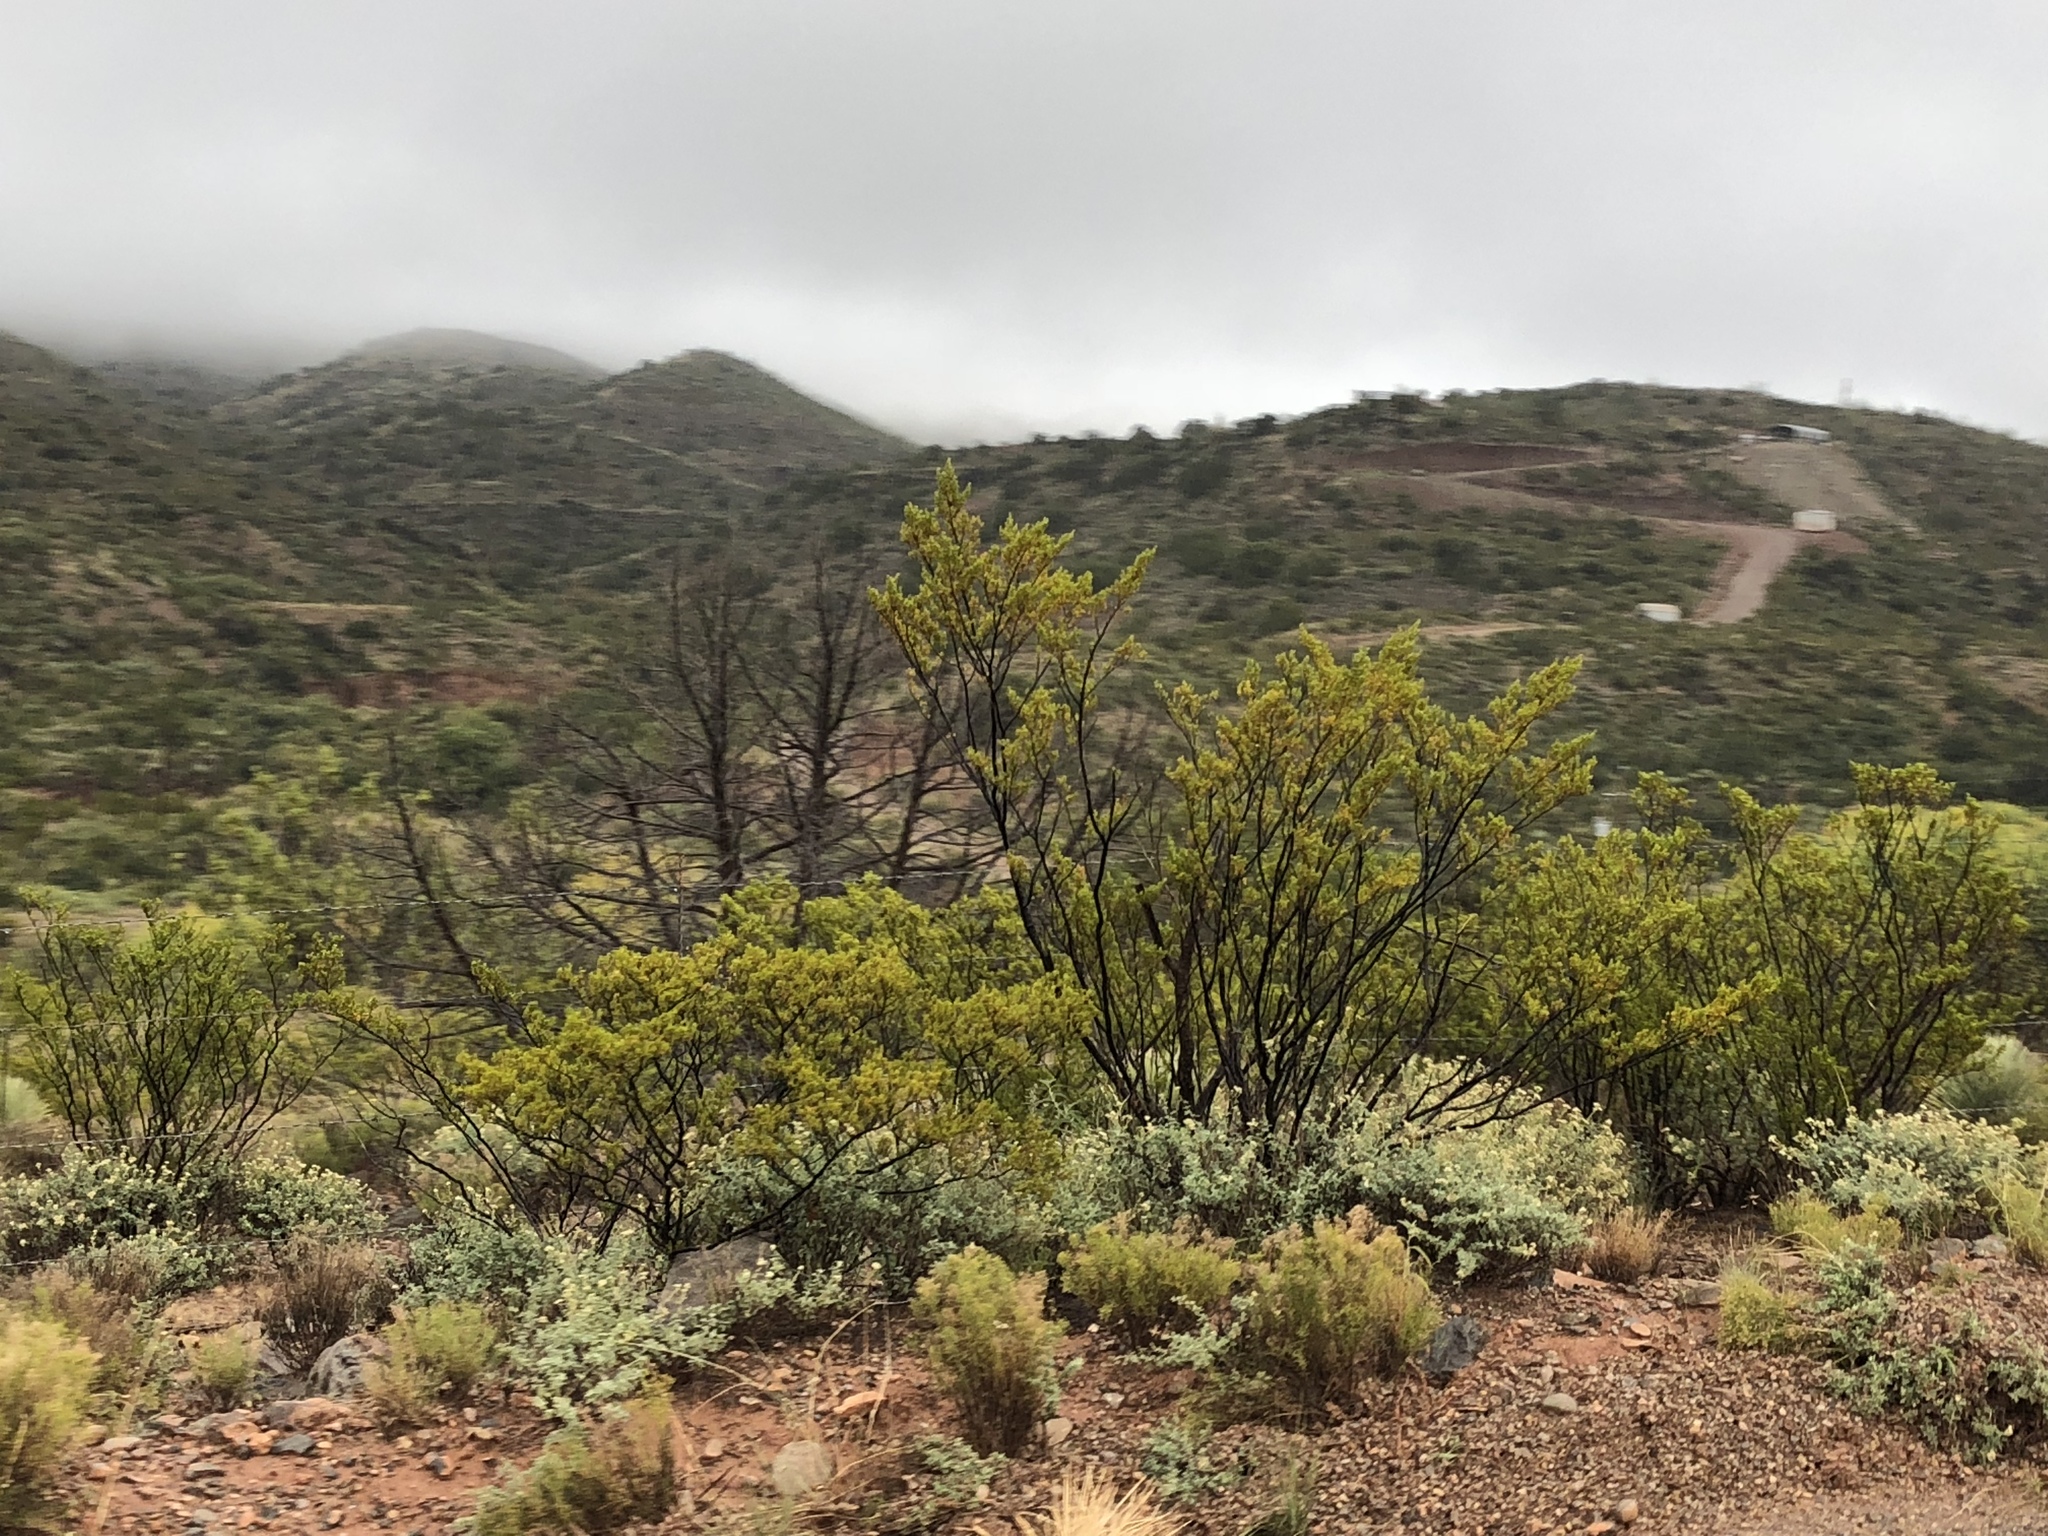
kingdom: Plantae
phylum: Tracheophyta
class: Magnoliopsida
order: Zygophyllales
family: Zygophyllaceae
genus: Larrea
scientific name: Larrea tridentata
